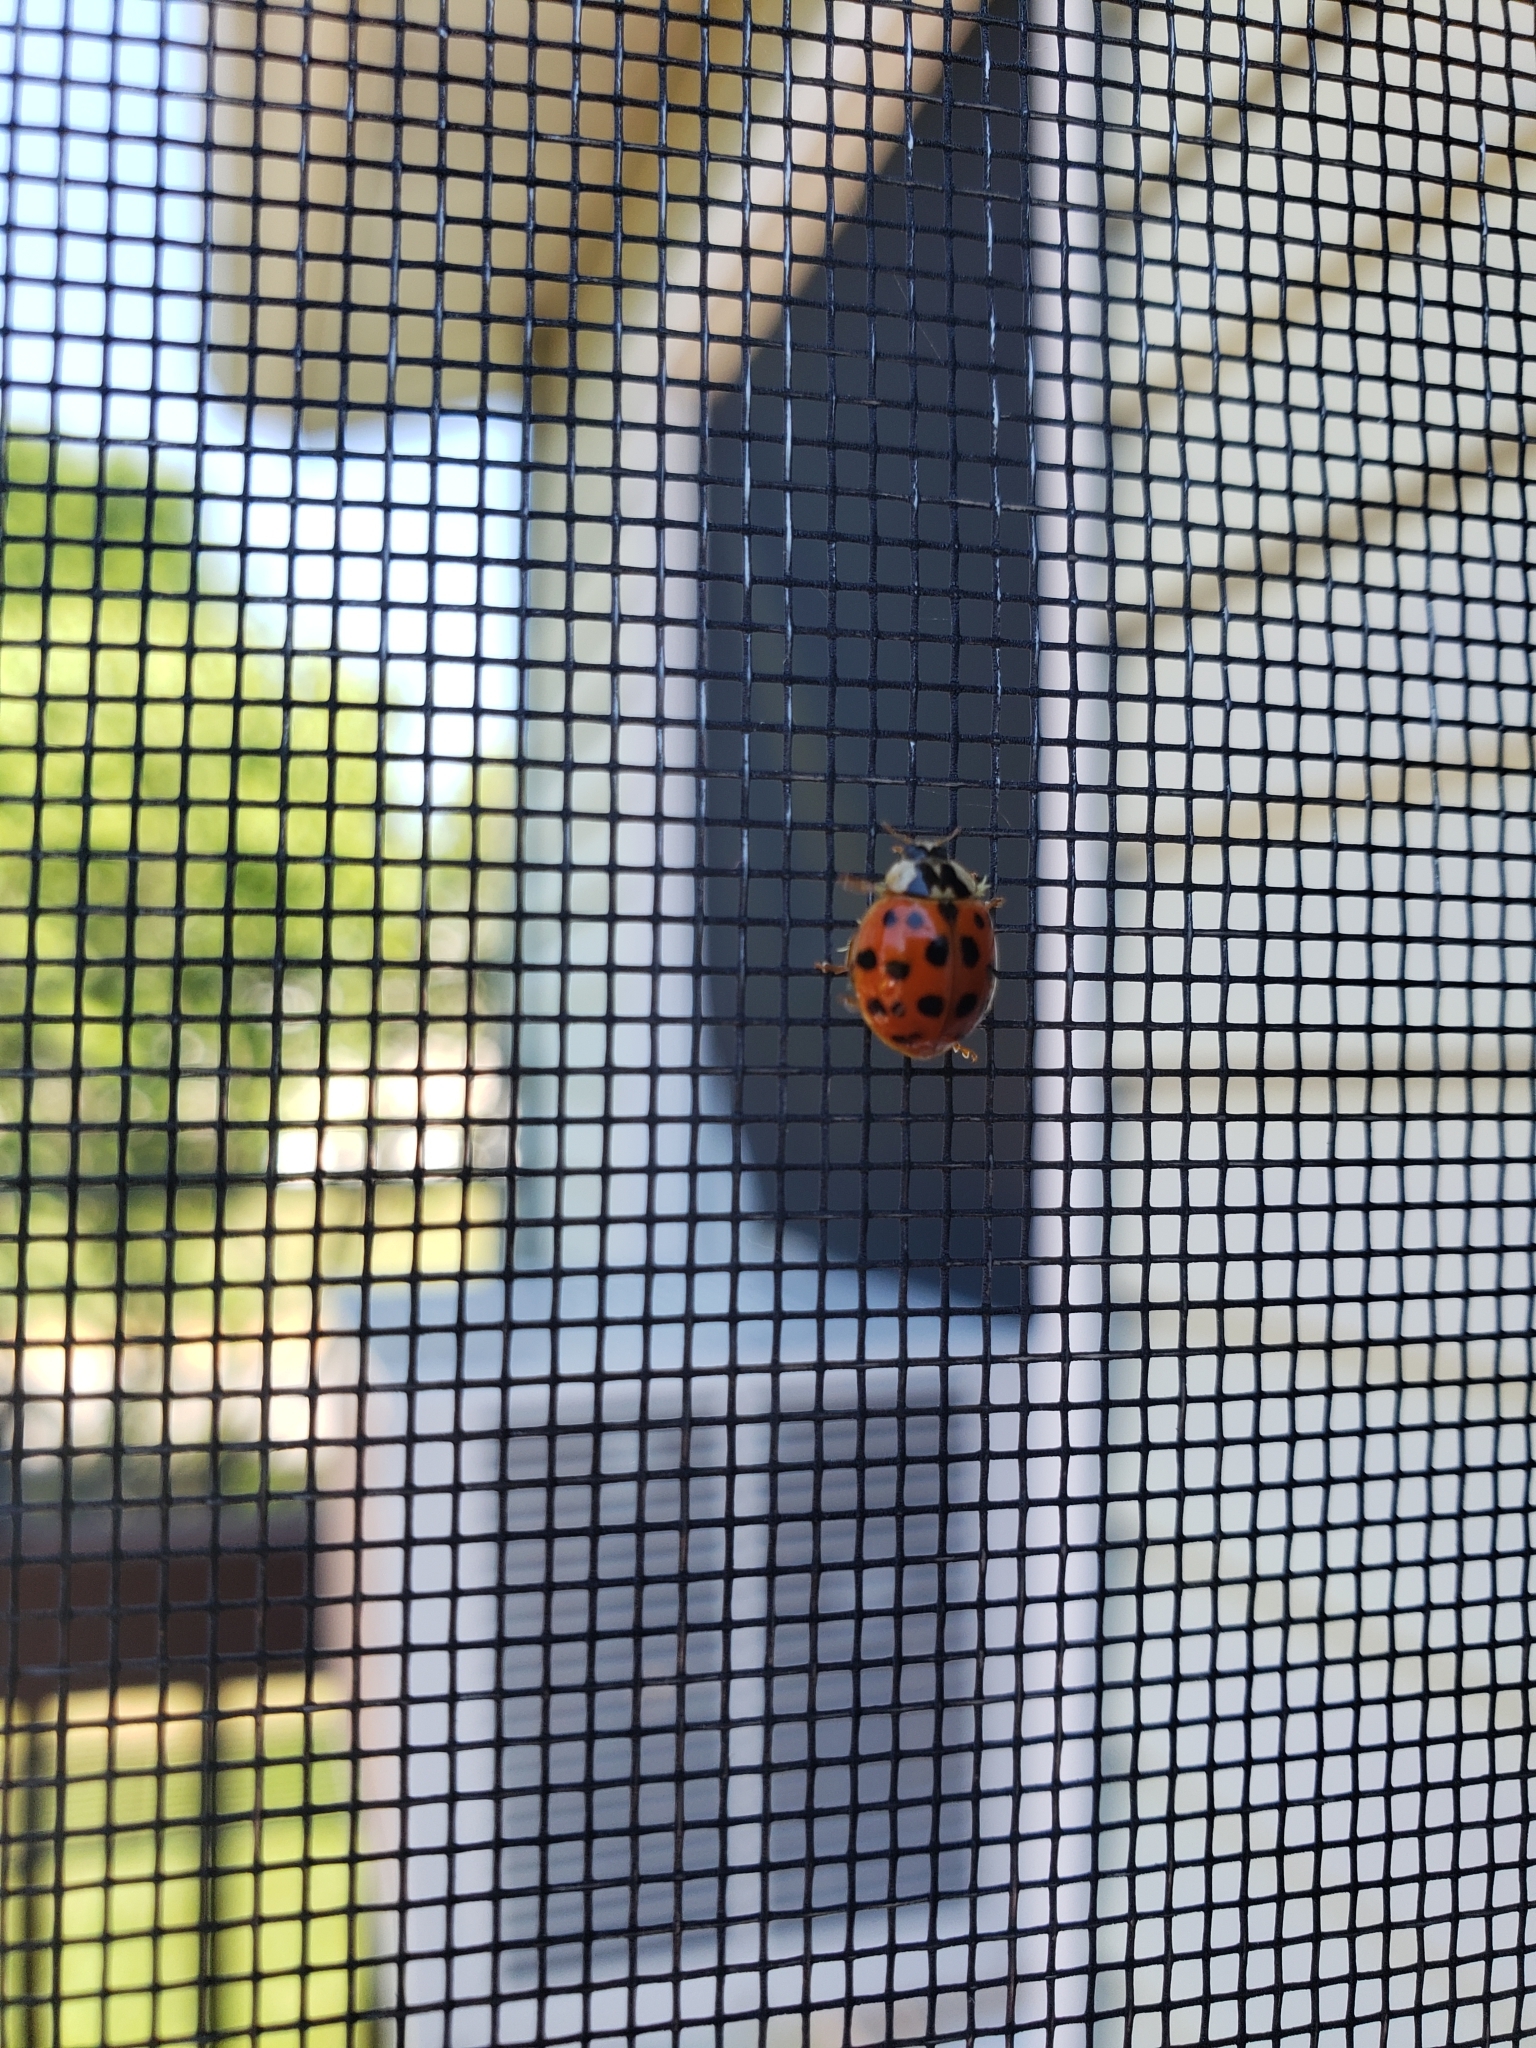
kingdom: Animalia
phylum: Arthropoda
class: Insecta
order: Coleoptera
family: Coccinellidae
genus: Harmonia
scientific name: Harmonia axyridis
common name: Harlequin ladybird
